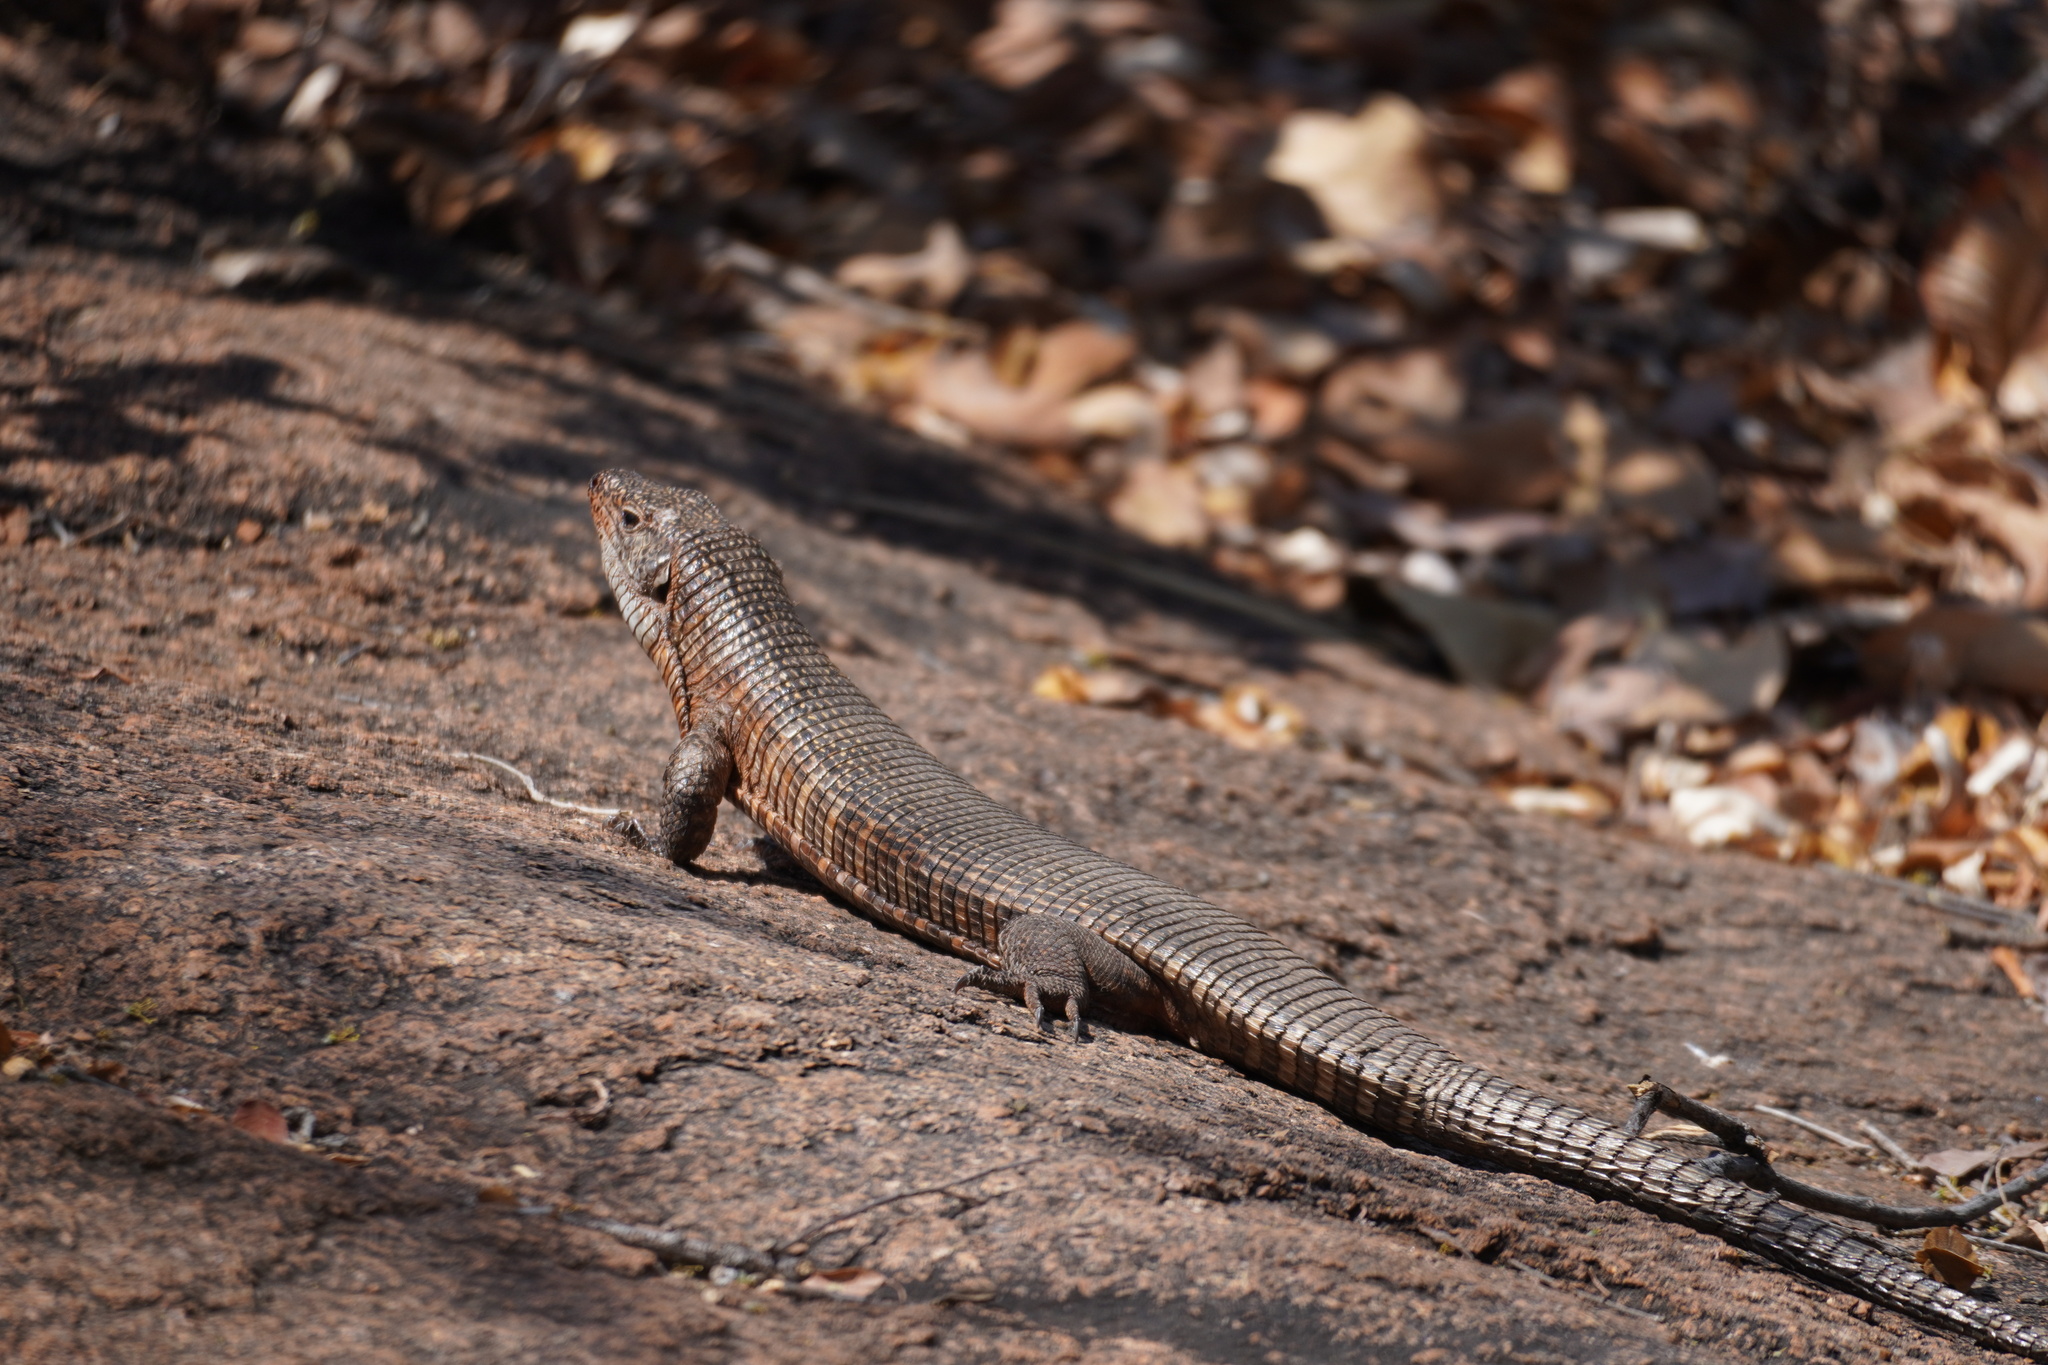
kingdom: Animalia
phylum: Chordata
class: Squamata
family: Gerrhosauridae
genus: Matobosaurus
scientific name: Matobosaurus validus
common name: Common giant plated lizard
